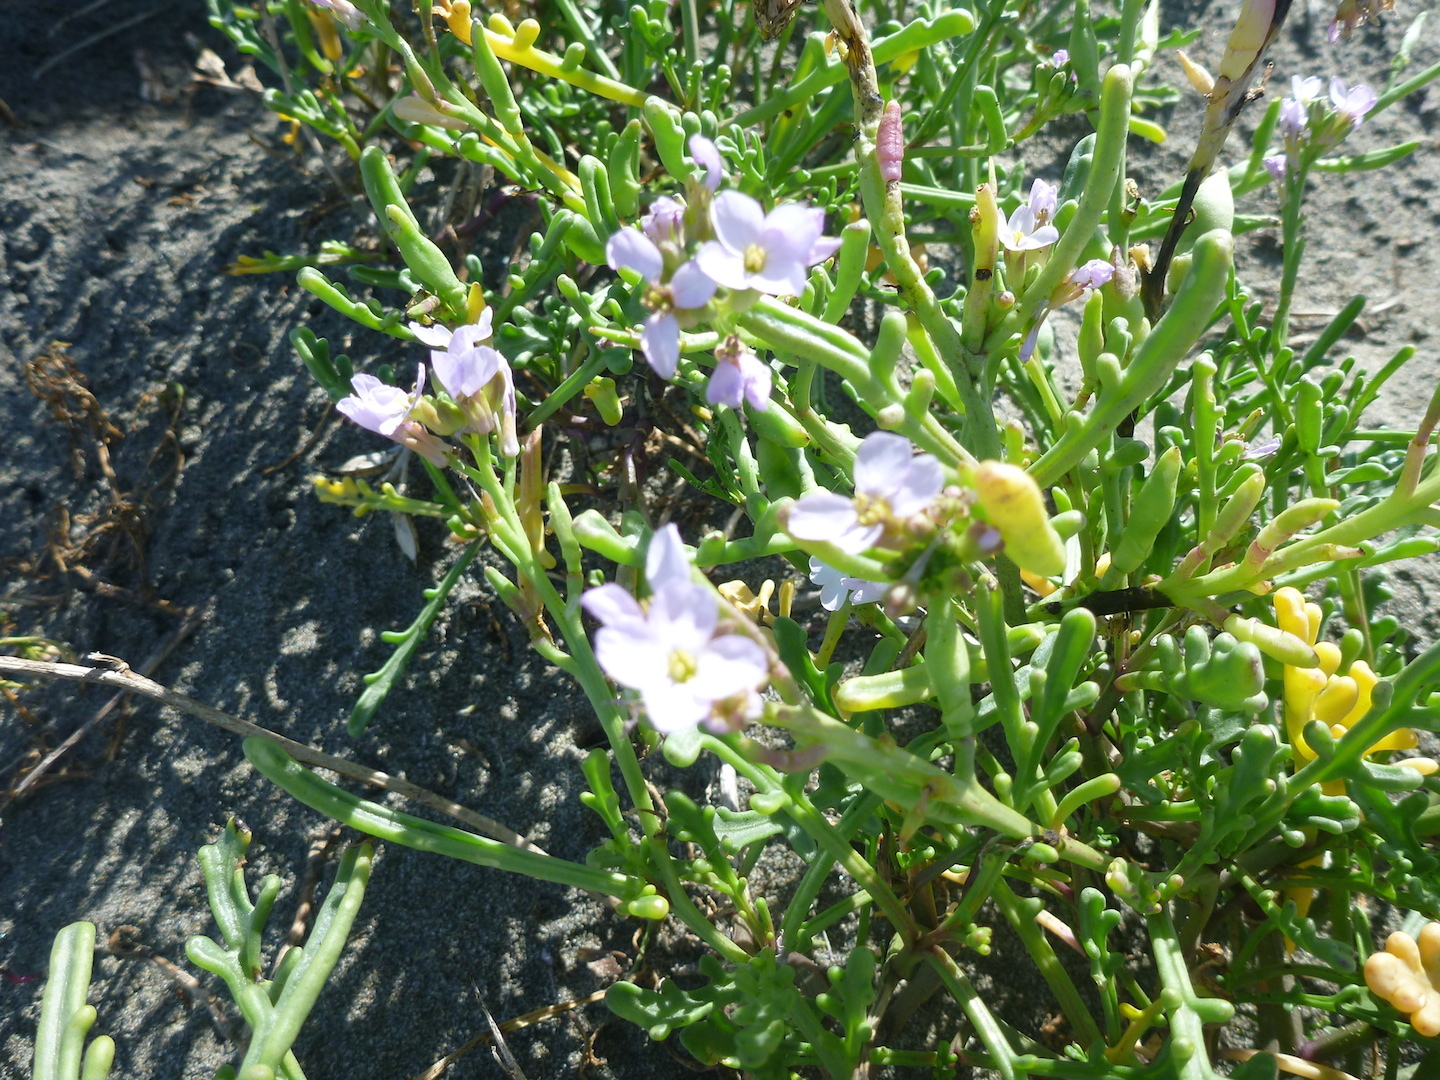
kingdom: Plantae
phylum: Tracheophyta
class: Magnoliopsida
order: Brassicales
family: Brassicaceae
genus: Cakile
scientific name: Cakile maritima
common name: Sea rocket
